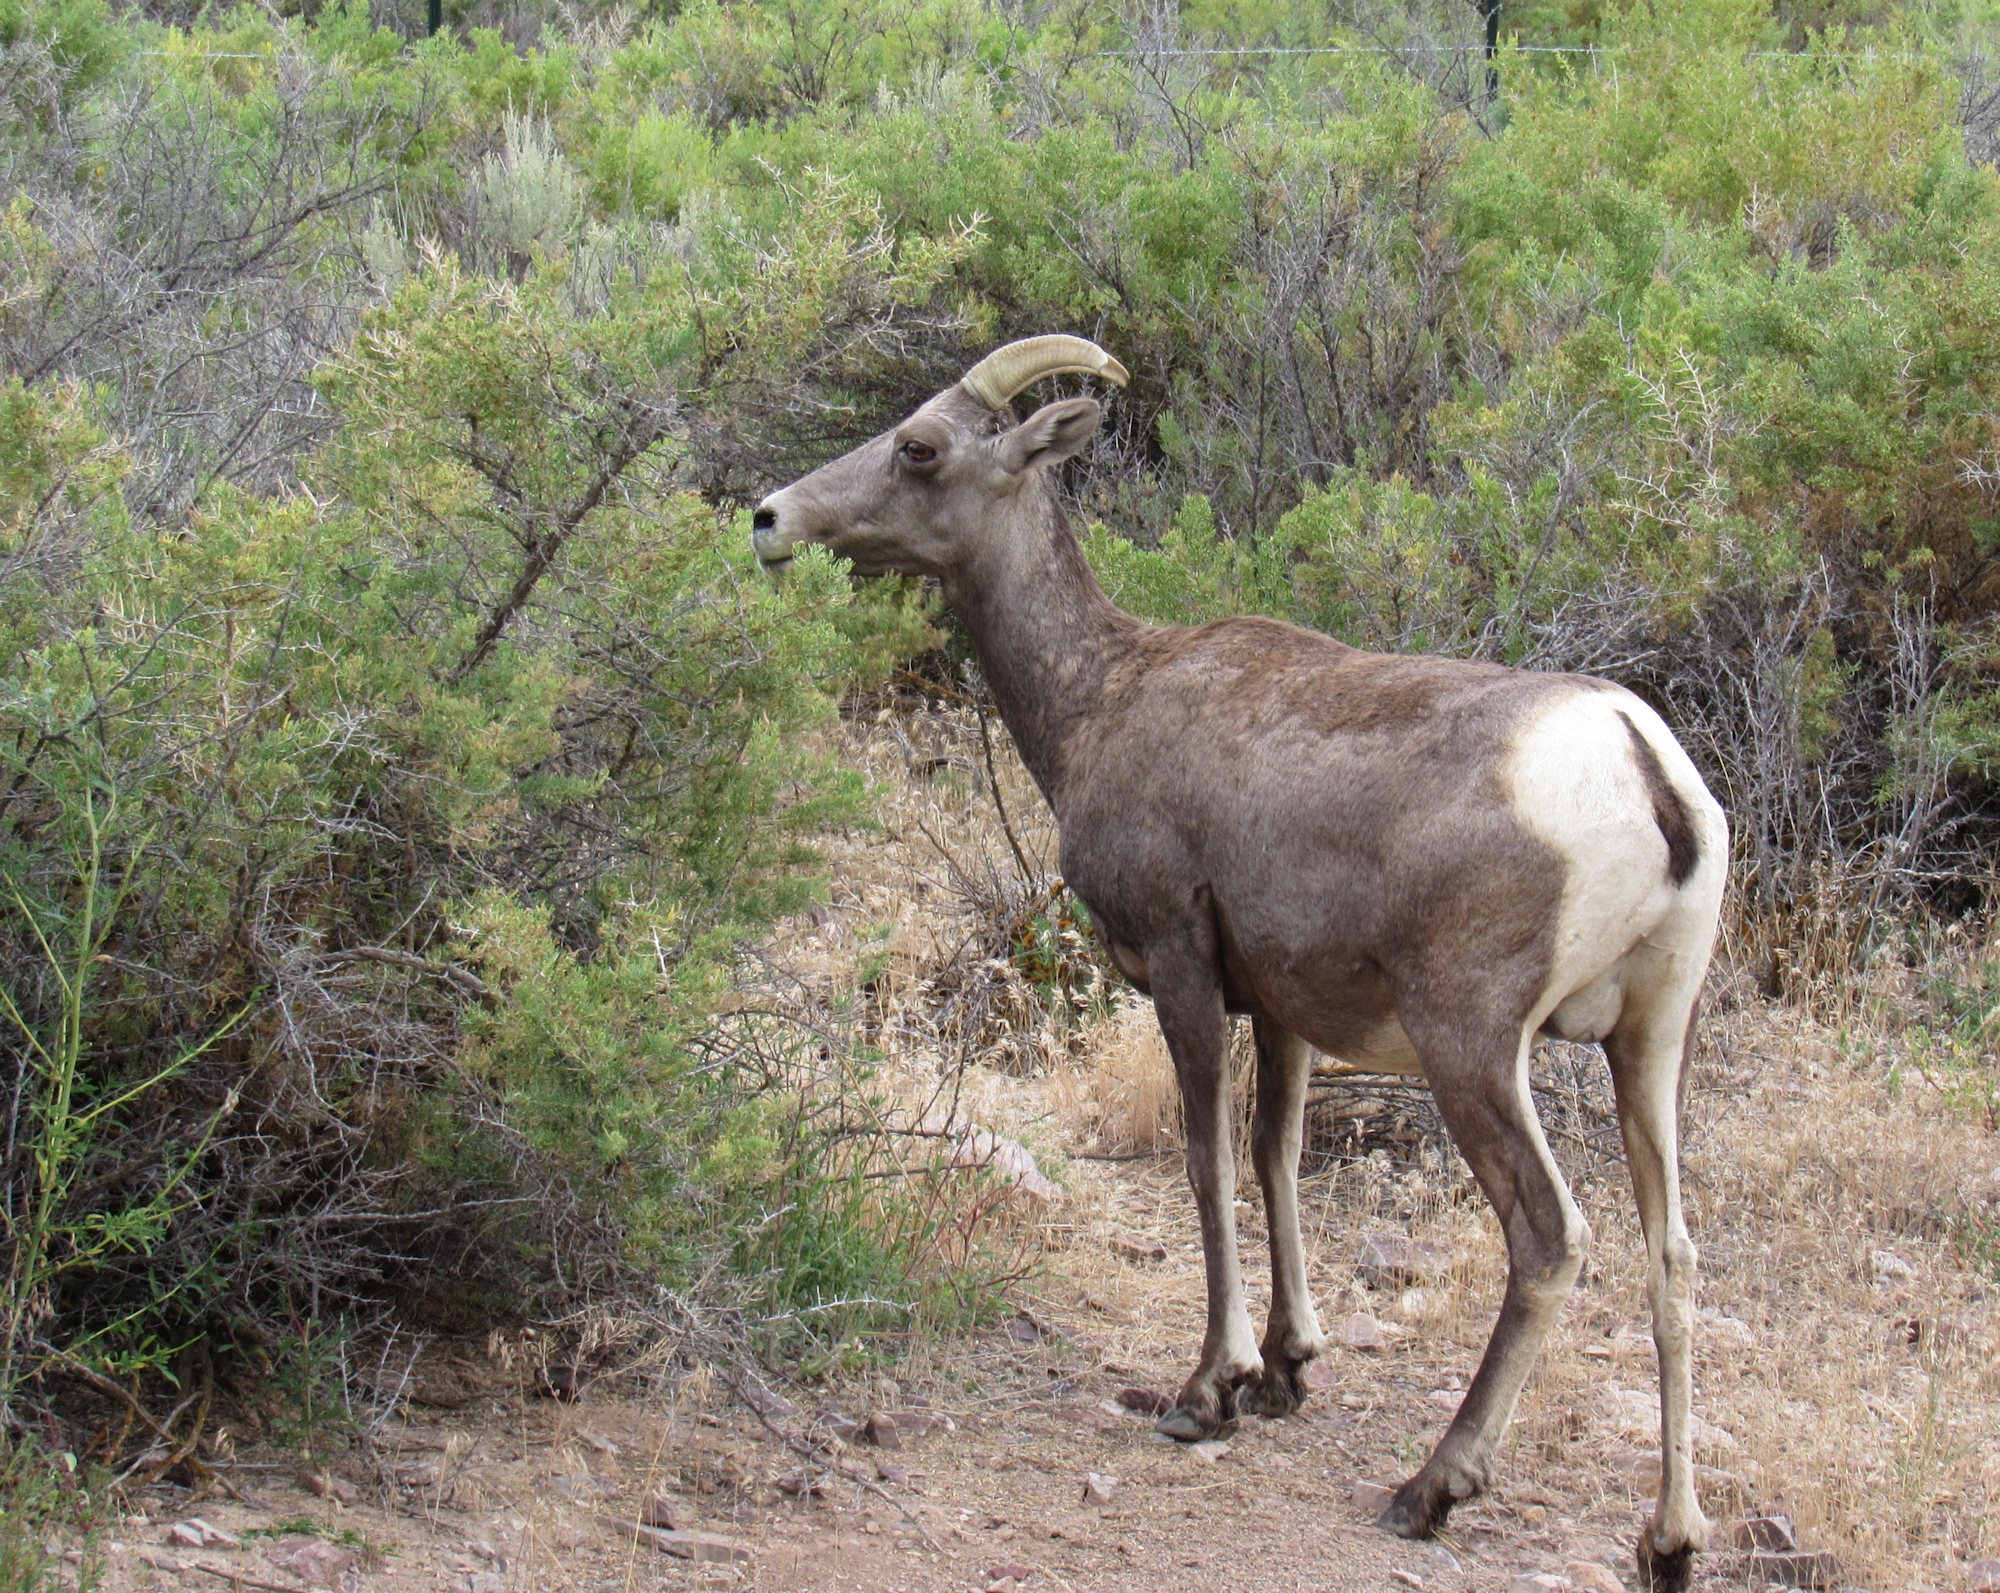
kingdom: Animalia
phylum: Chordata
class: Mammalia
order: Artiodactyla
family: Bovidae
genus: Ovis
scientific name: Ovis canadensis
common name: Bighorn sheep
